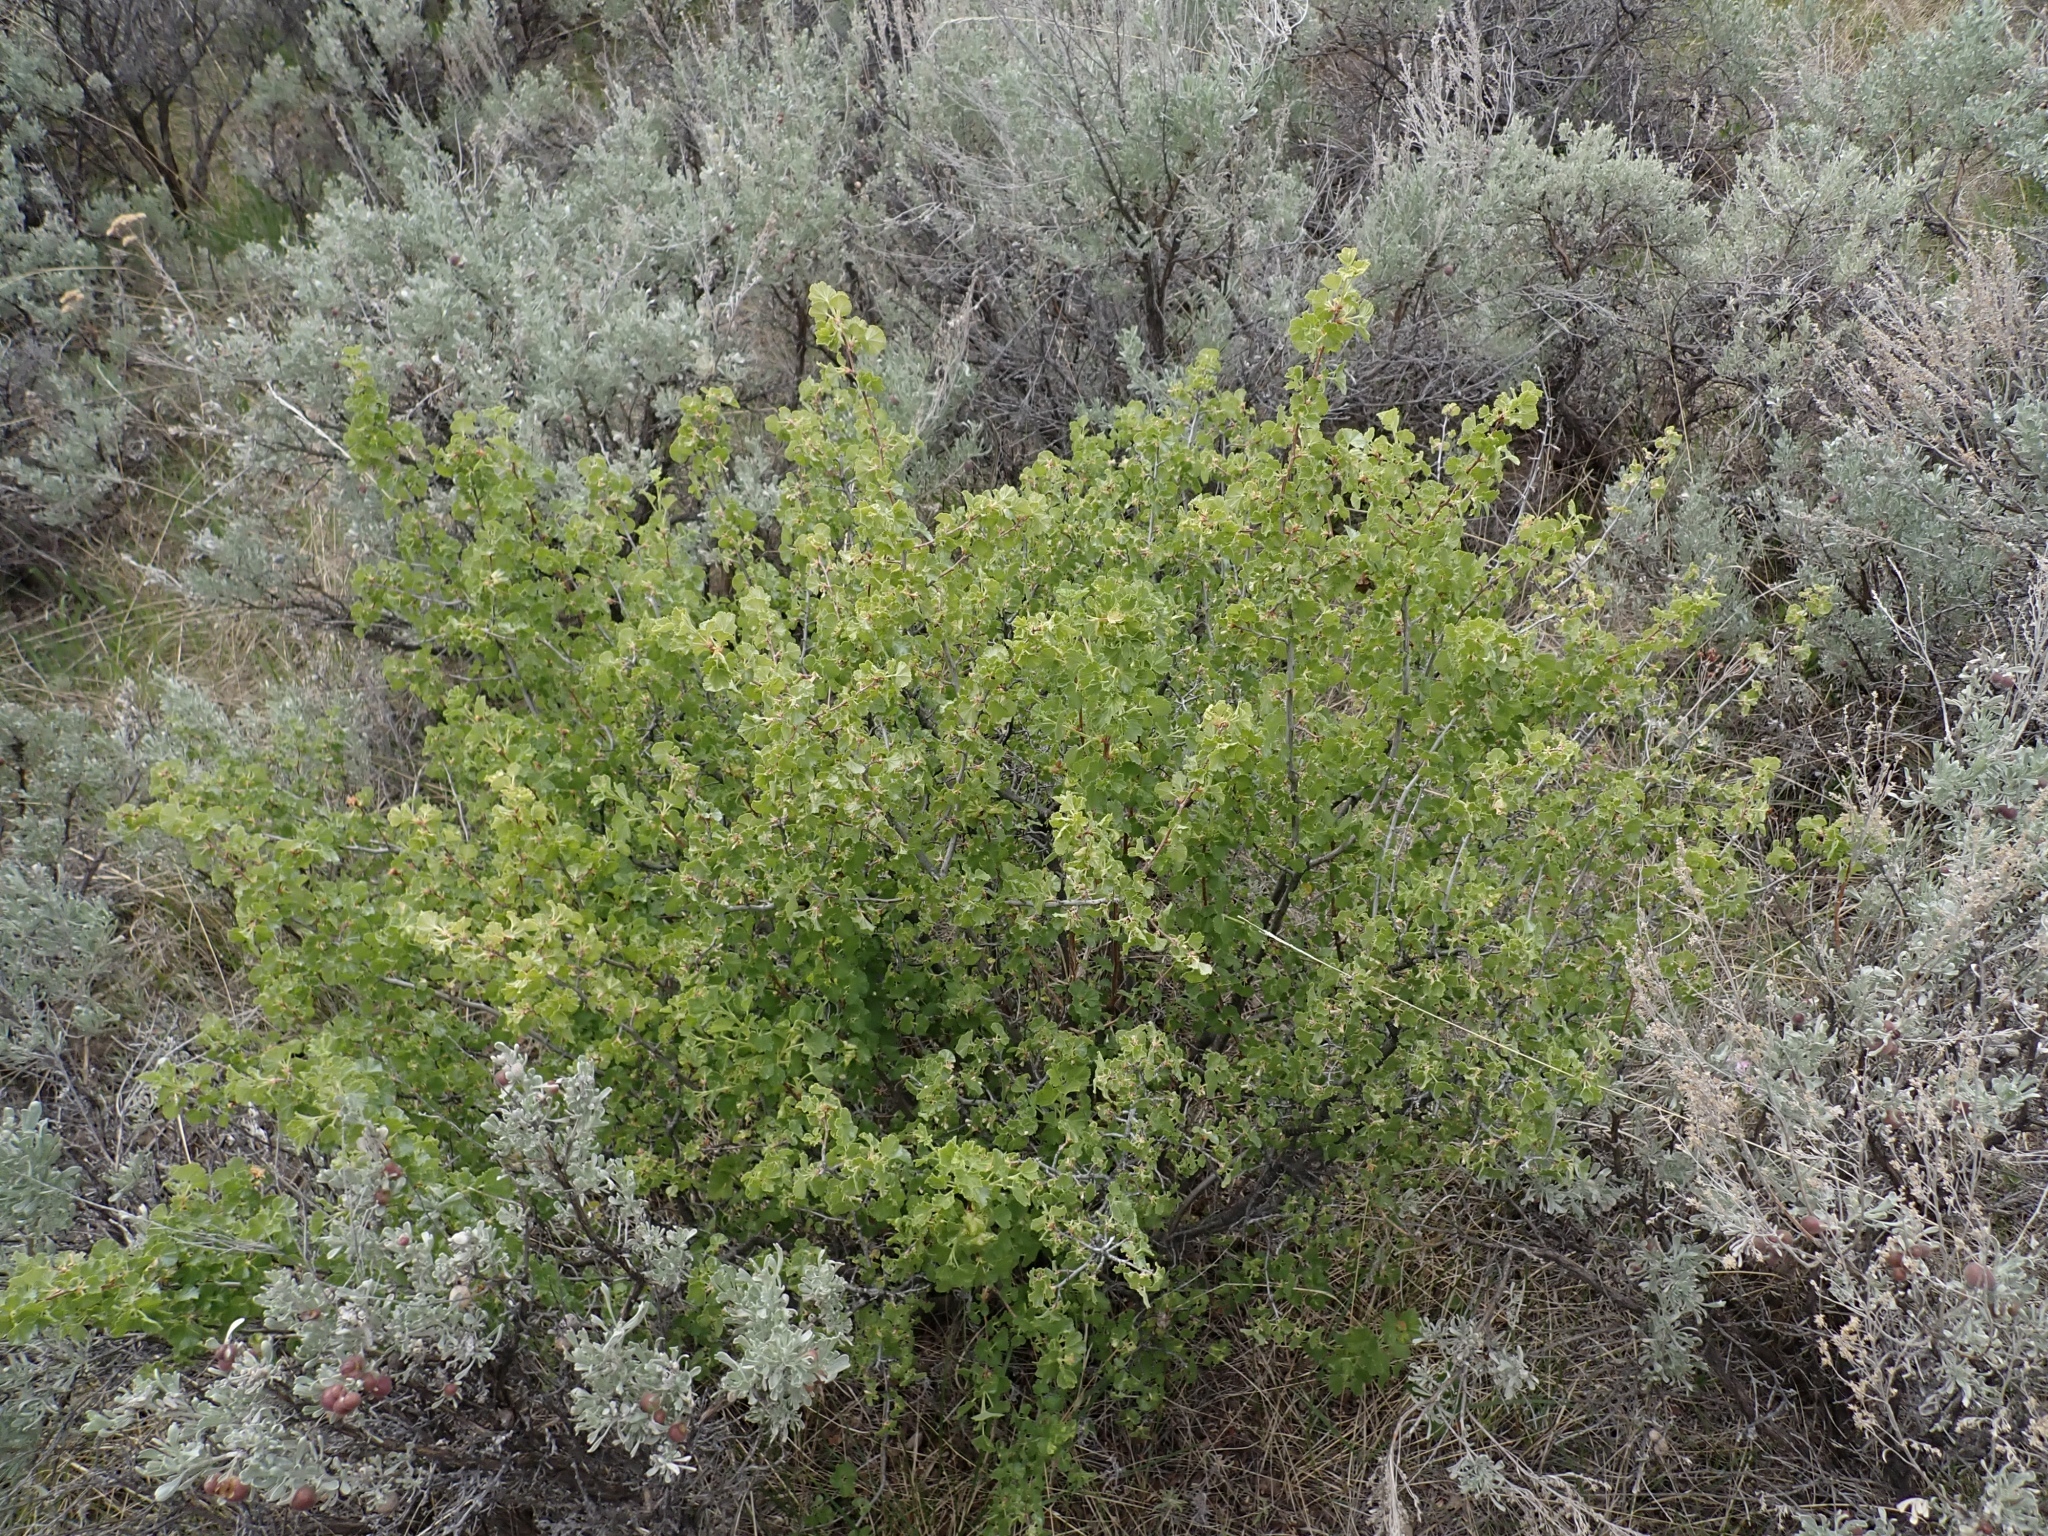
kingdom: Plantae
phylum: Tracheophyta
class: Magnoliopsida
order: Saxifragales
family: Grossulariaceae
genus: Ribes
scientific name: Ribes cereum
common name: Wax currant
